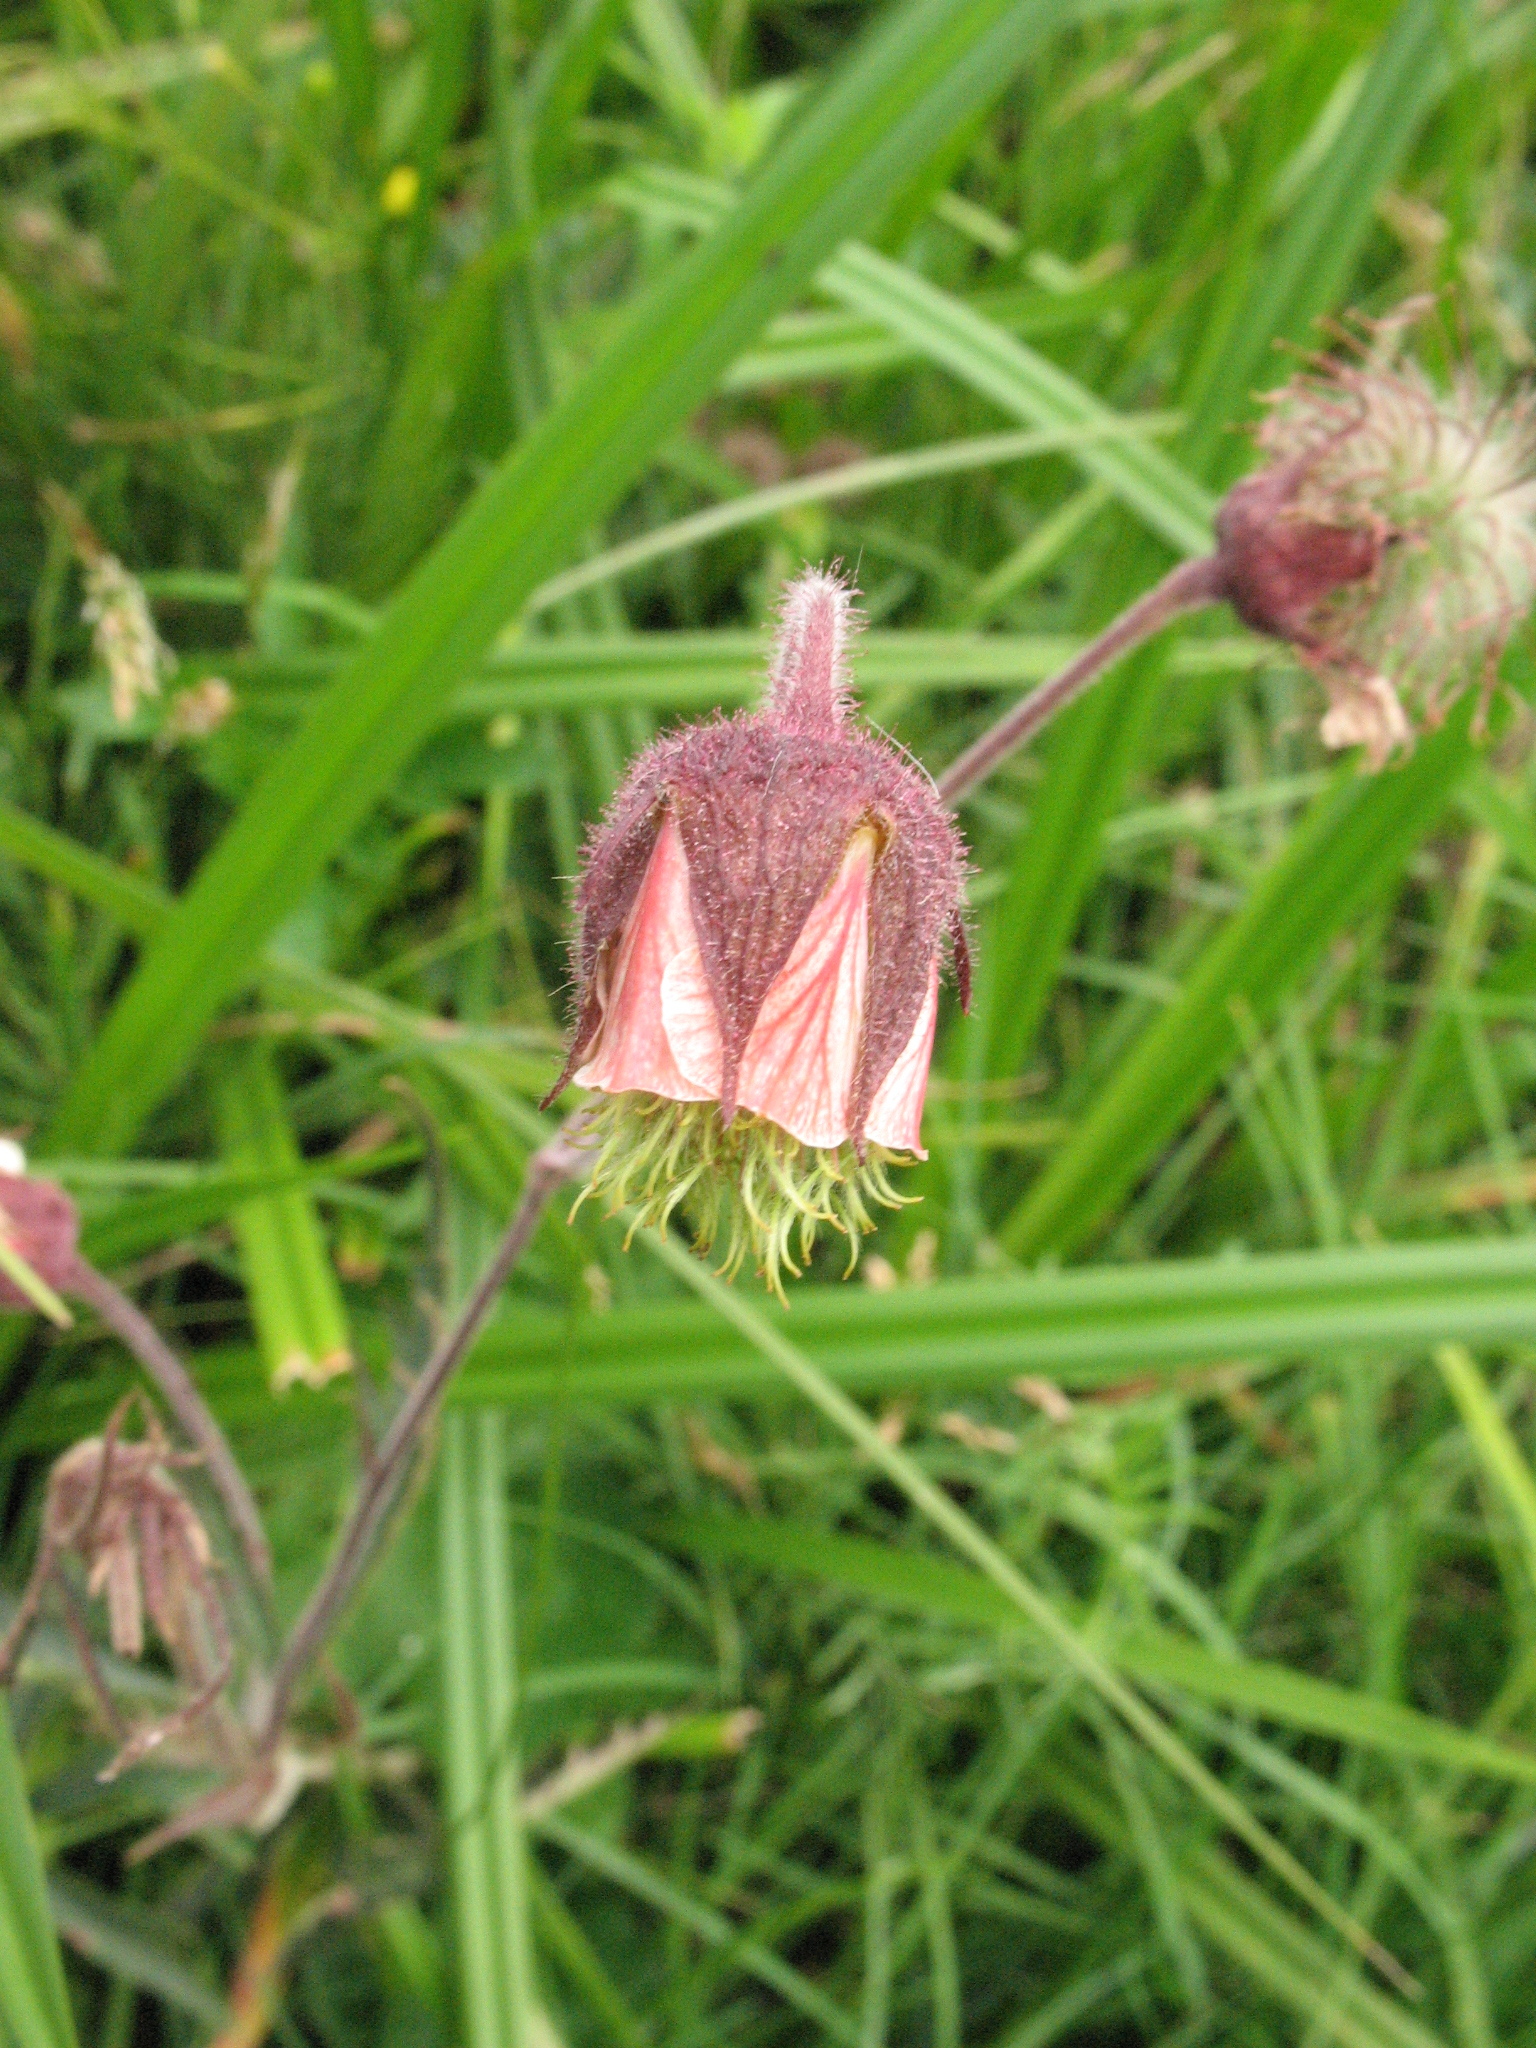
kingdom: Plantae
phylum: Tracheophyta
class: Magnoliopsida
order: Rosales
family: Rosaceae
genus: Geum
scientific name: Geum rivale
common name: Water avens
